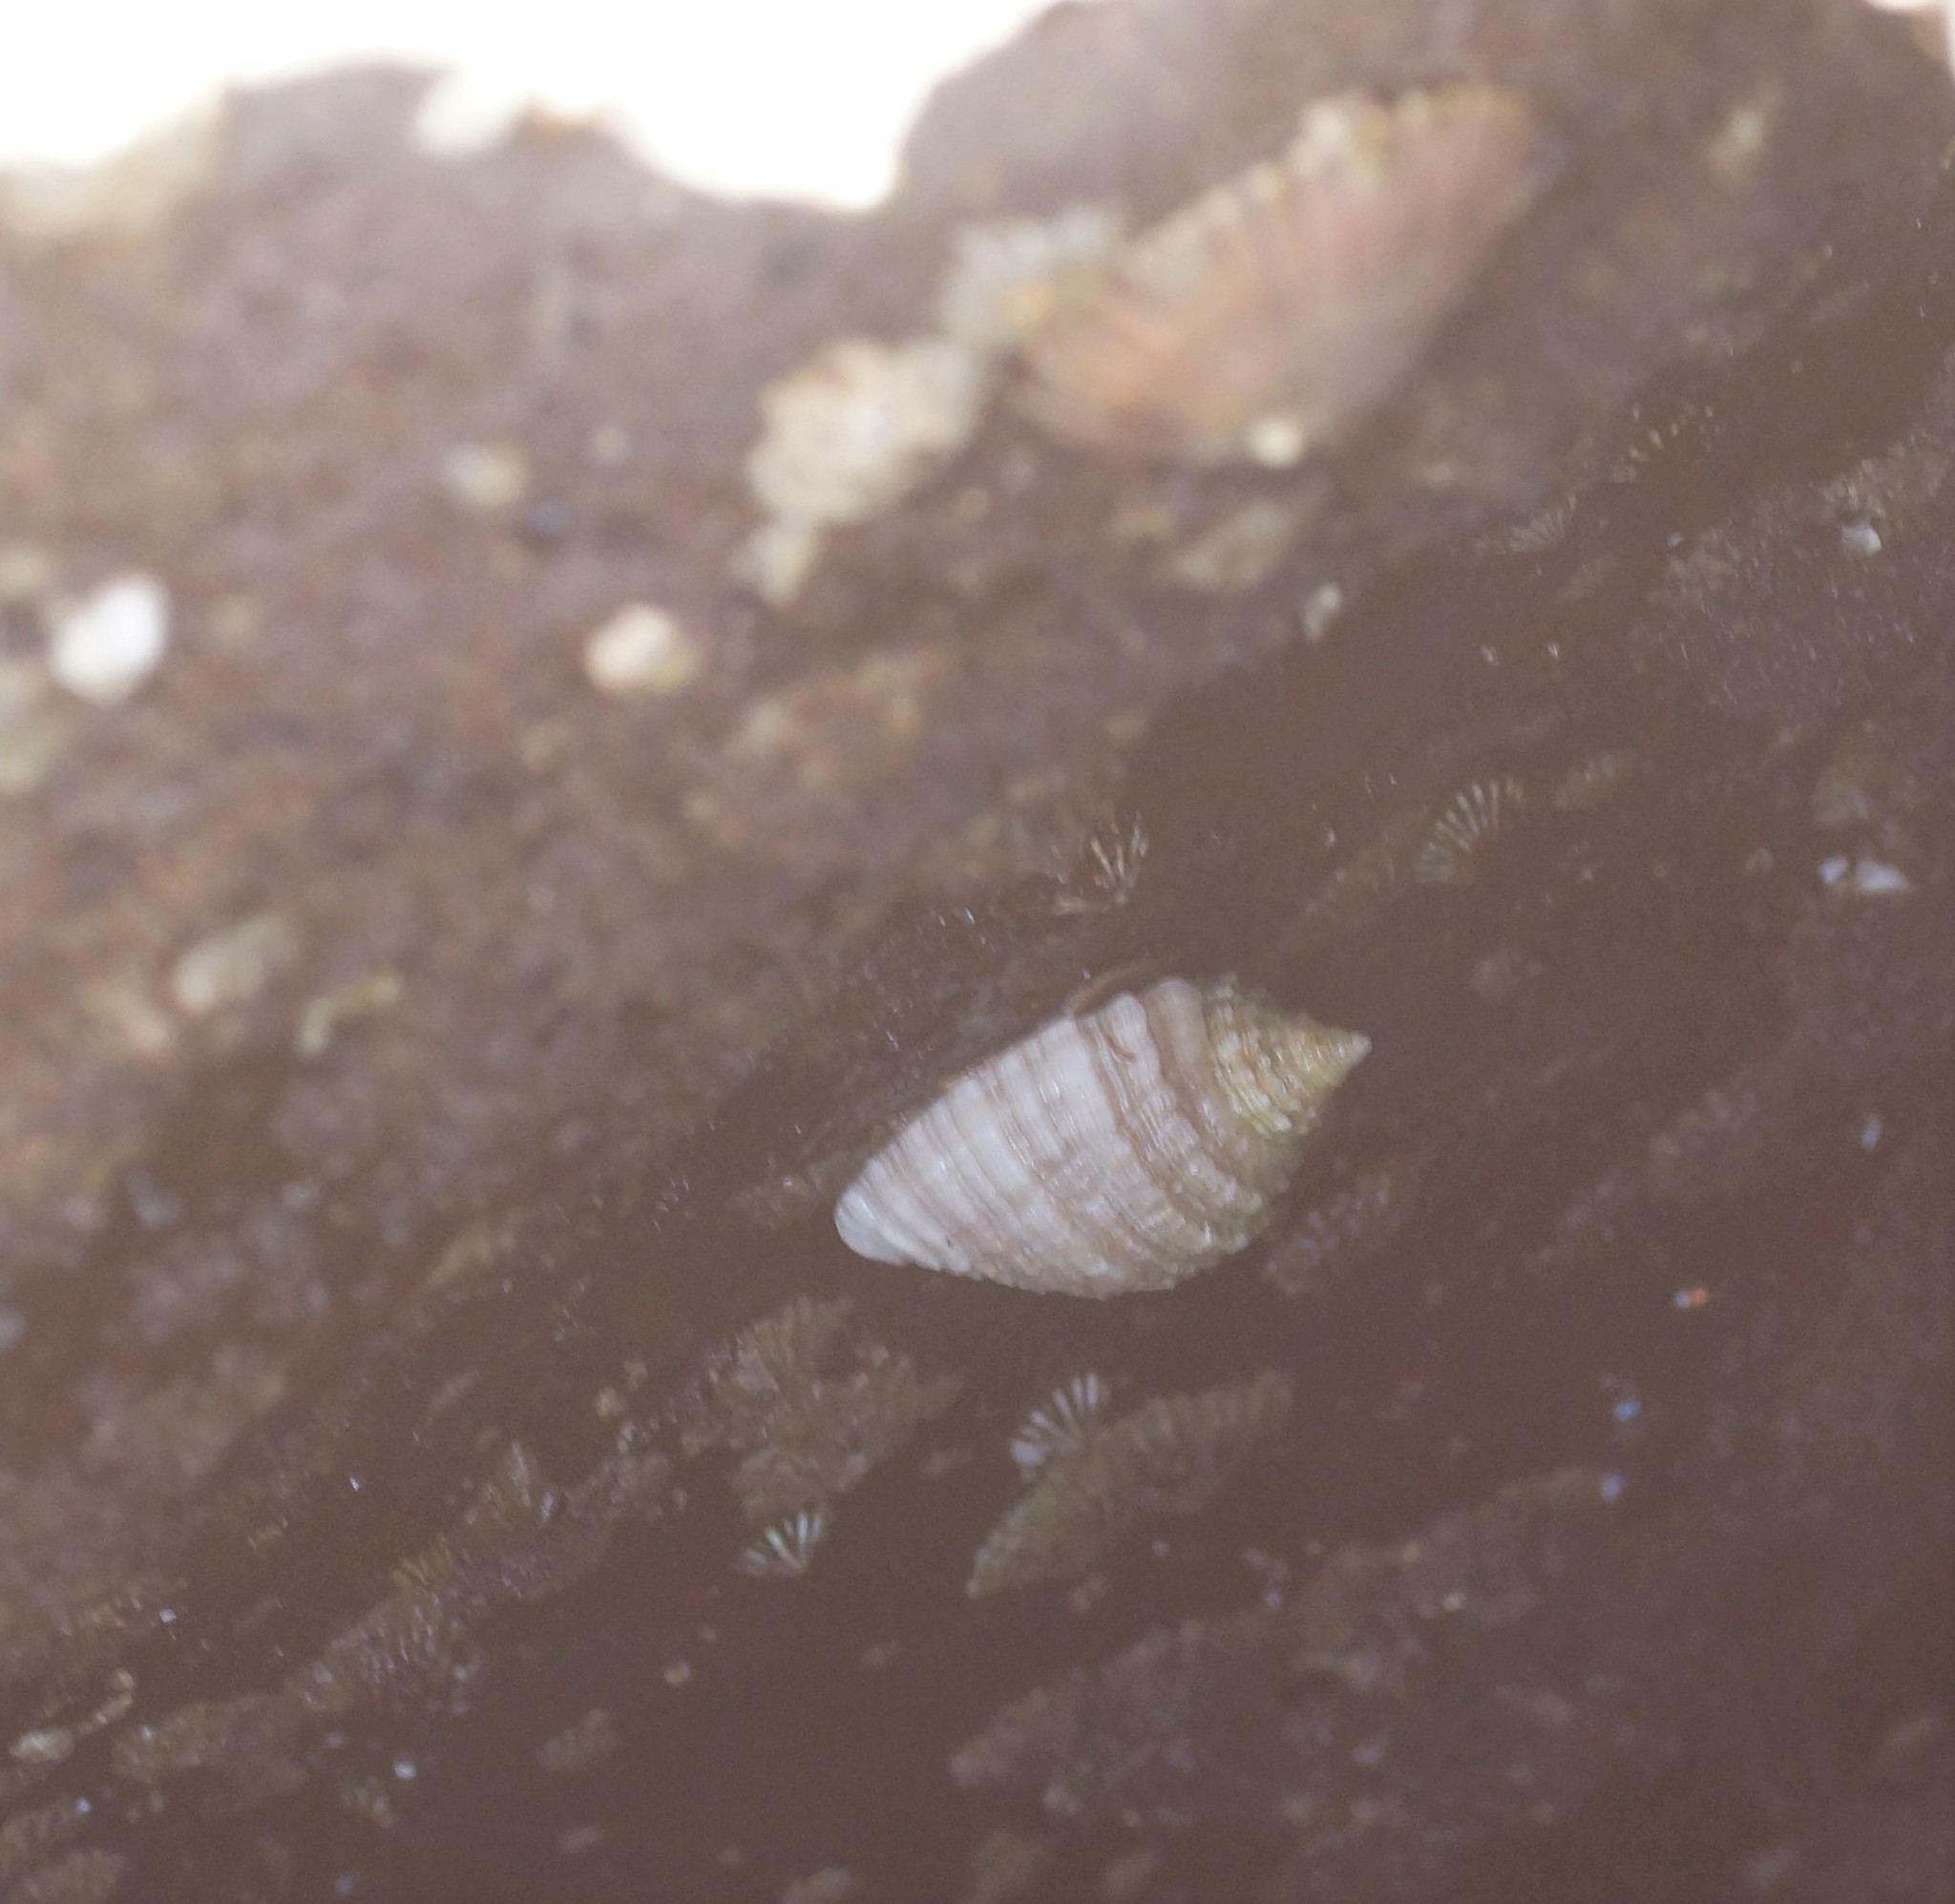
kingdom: Animalia
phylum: Mollusca
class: Gastropoda
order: Neogastropoda
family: Muricidae
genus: Dicathais
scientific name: Dicathais orbita
